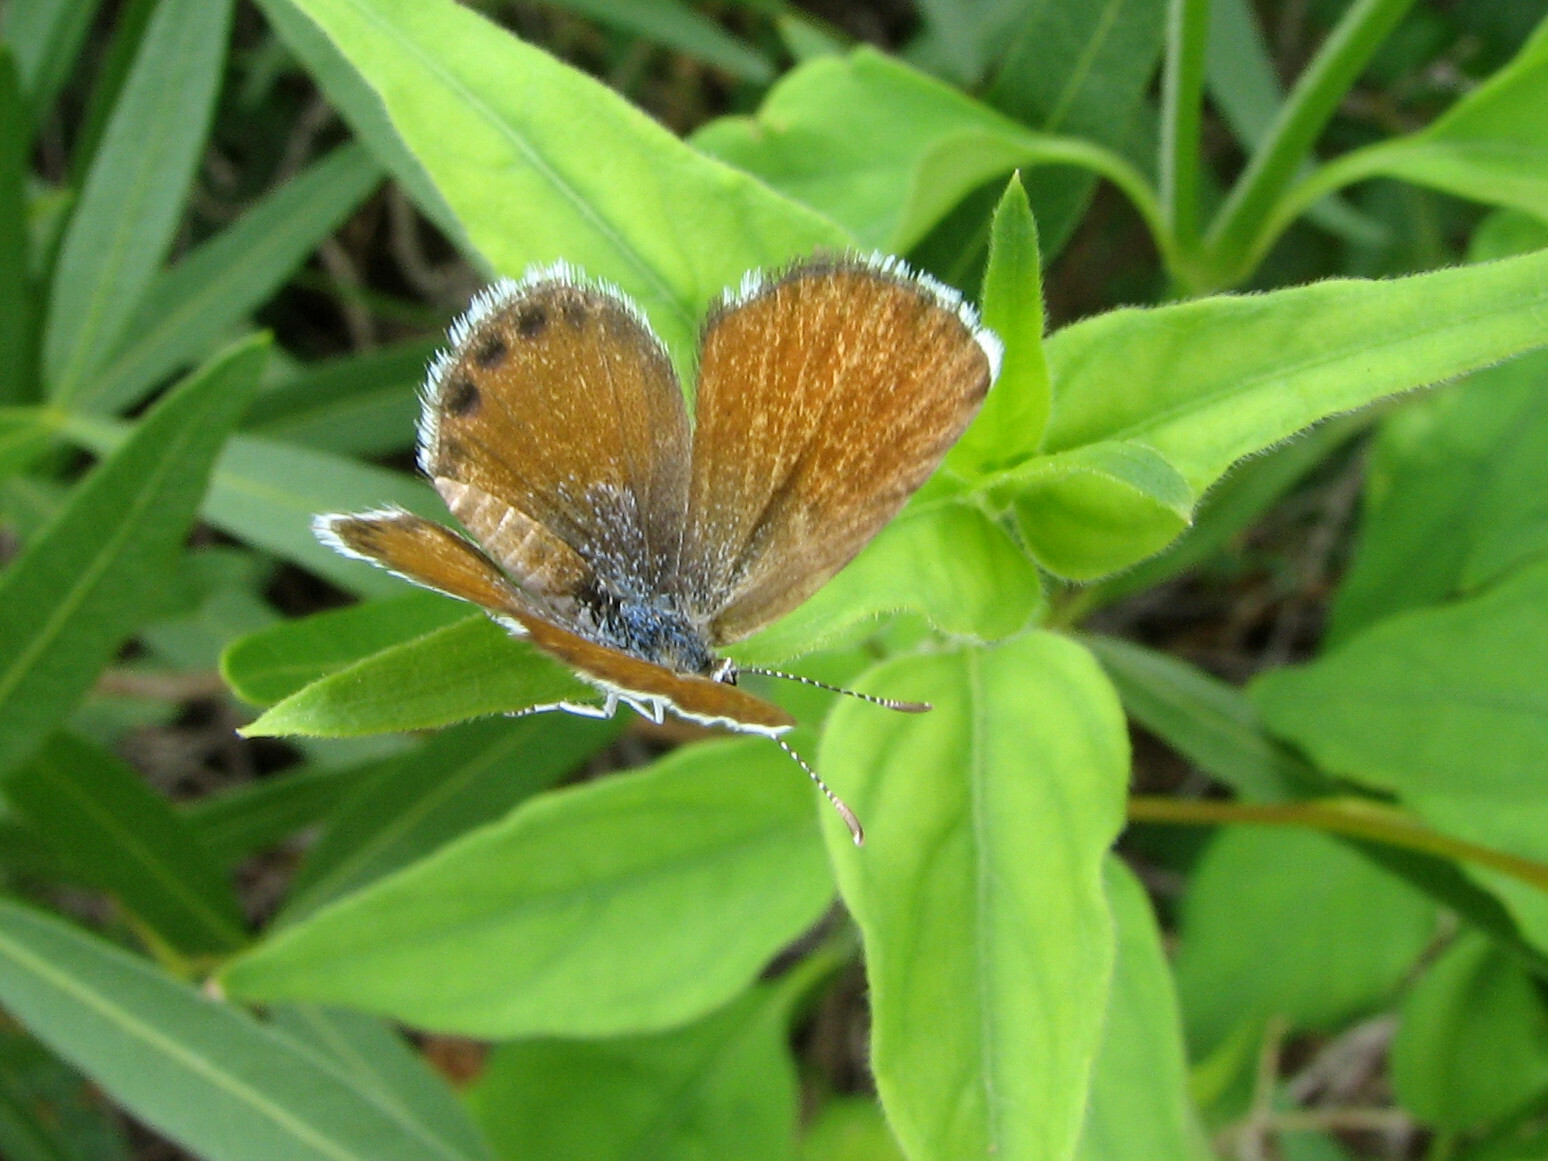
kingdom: Animalia
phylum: Arthropoda
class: Insecta
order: Lepidoptera
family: Lycaenidae
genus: Brephidium
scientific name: Brephidium exilis
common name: Pygmy blue
